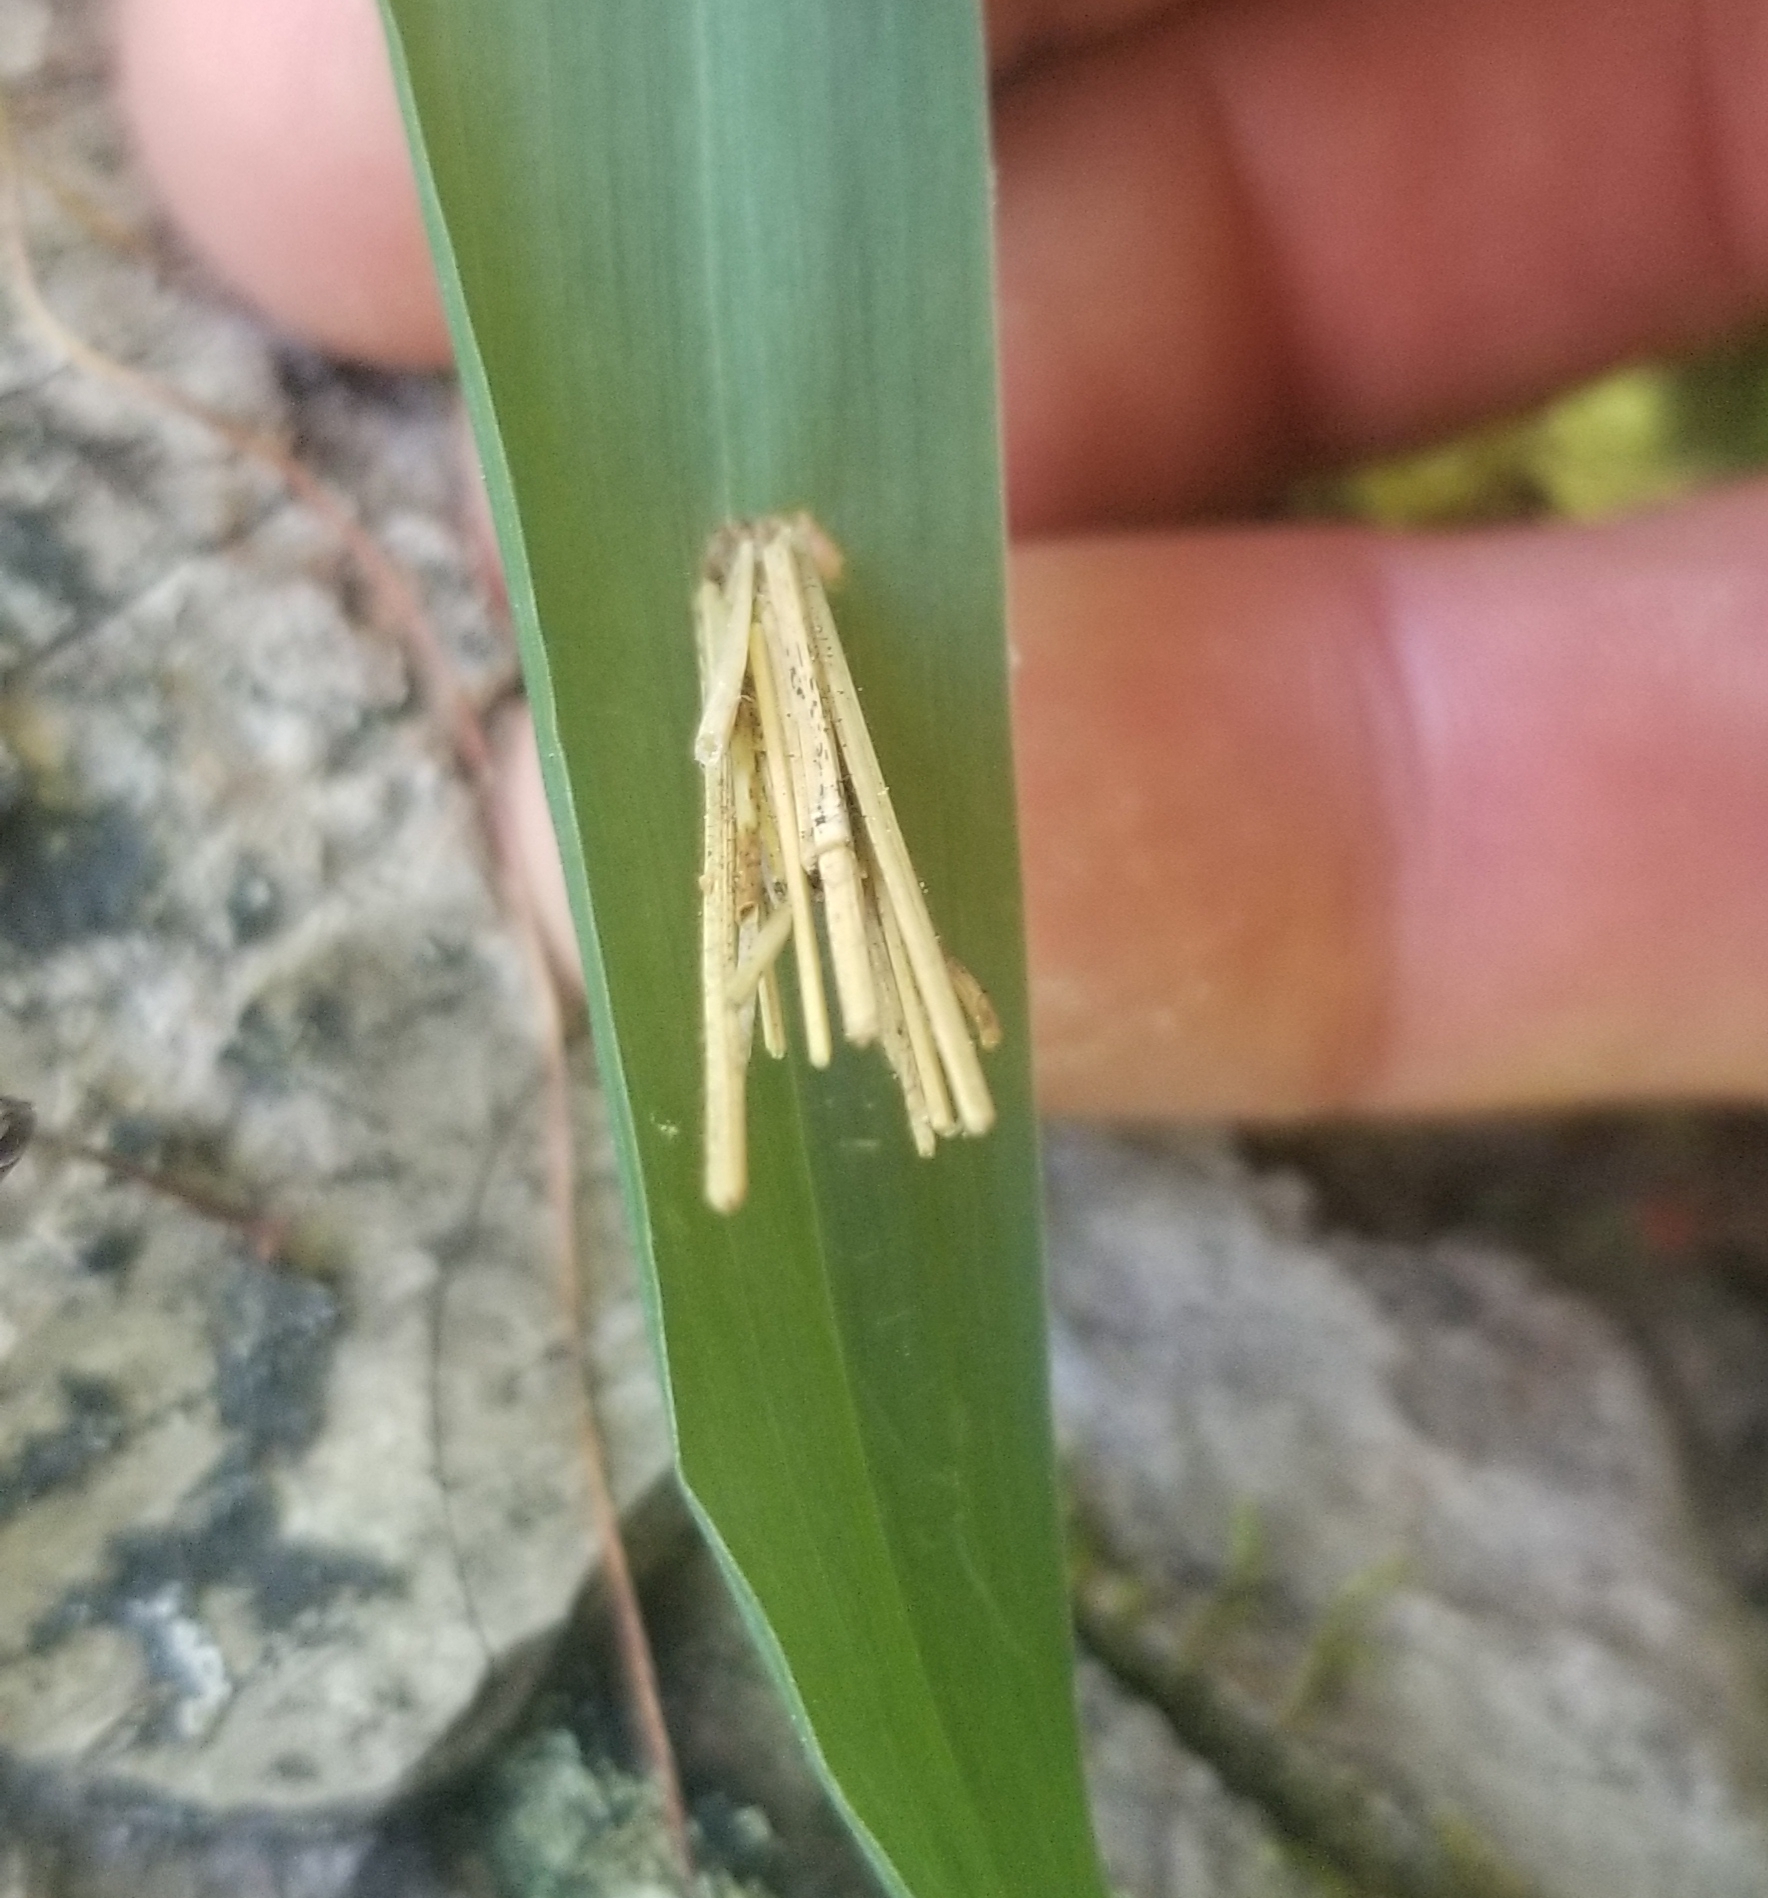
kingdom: Animalia
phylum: Arthropoda
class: Insecta
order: Lepidoptera
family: Psychidae
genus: Psyche
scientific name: Psyche casta
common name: Common sweep
